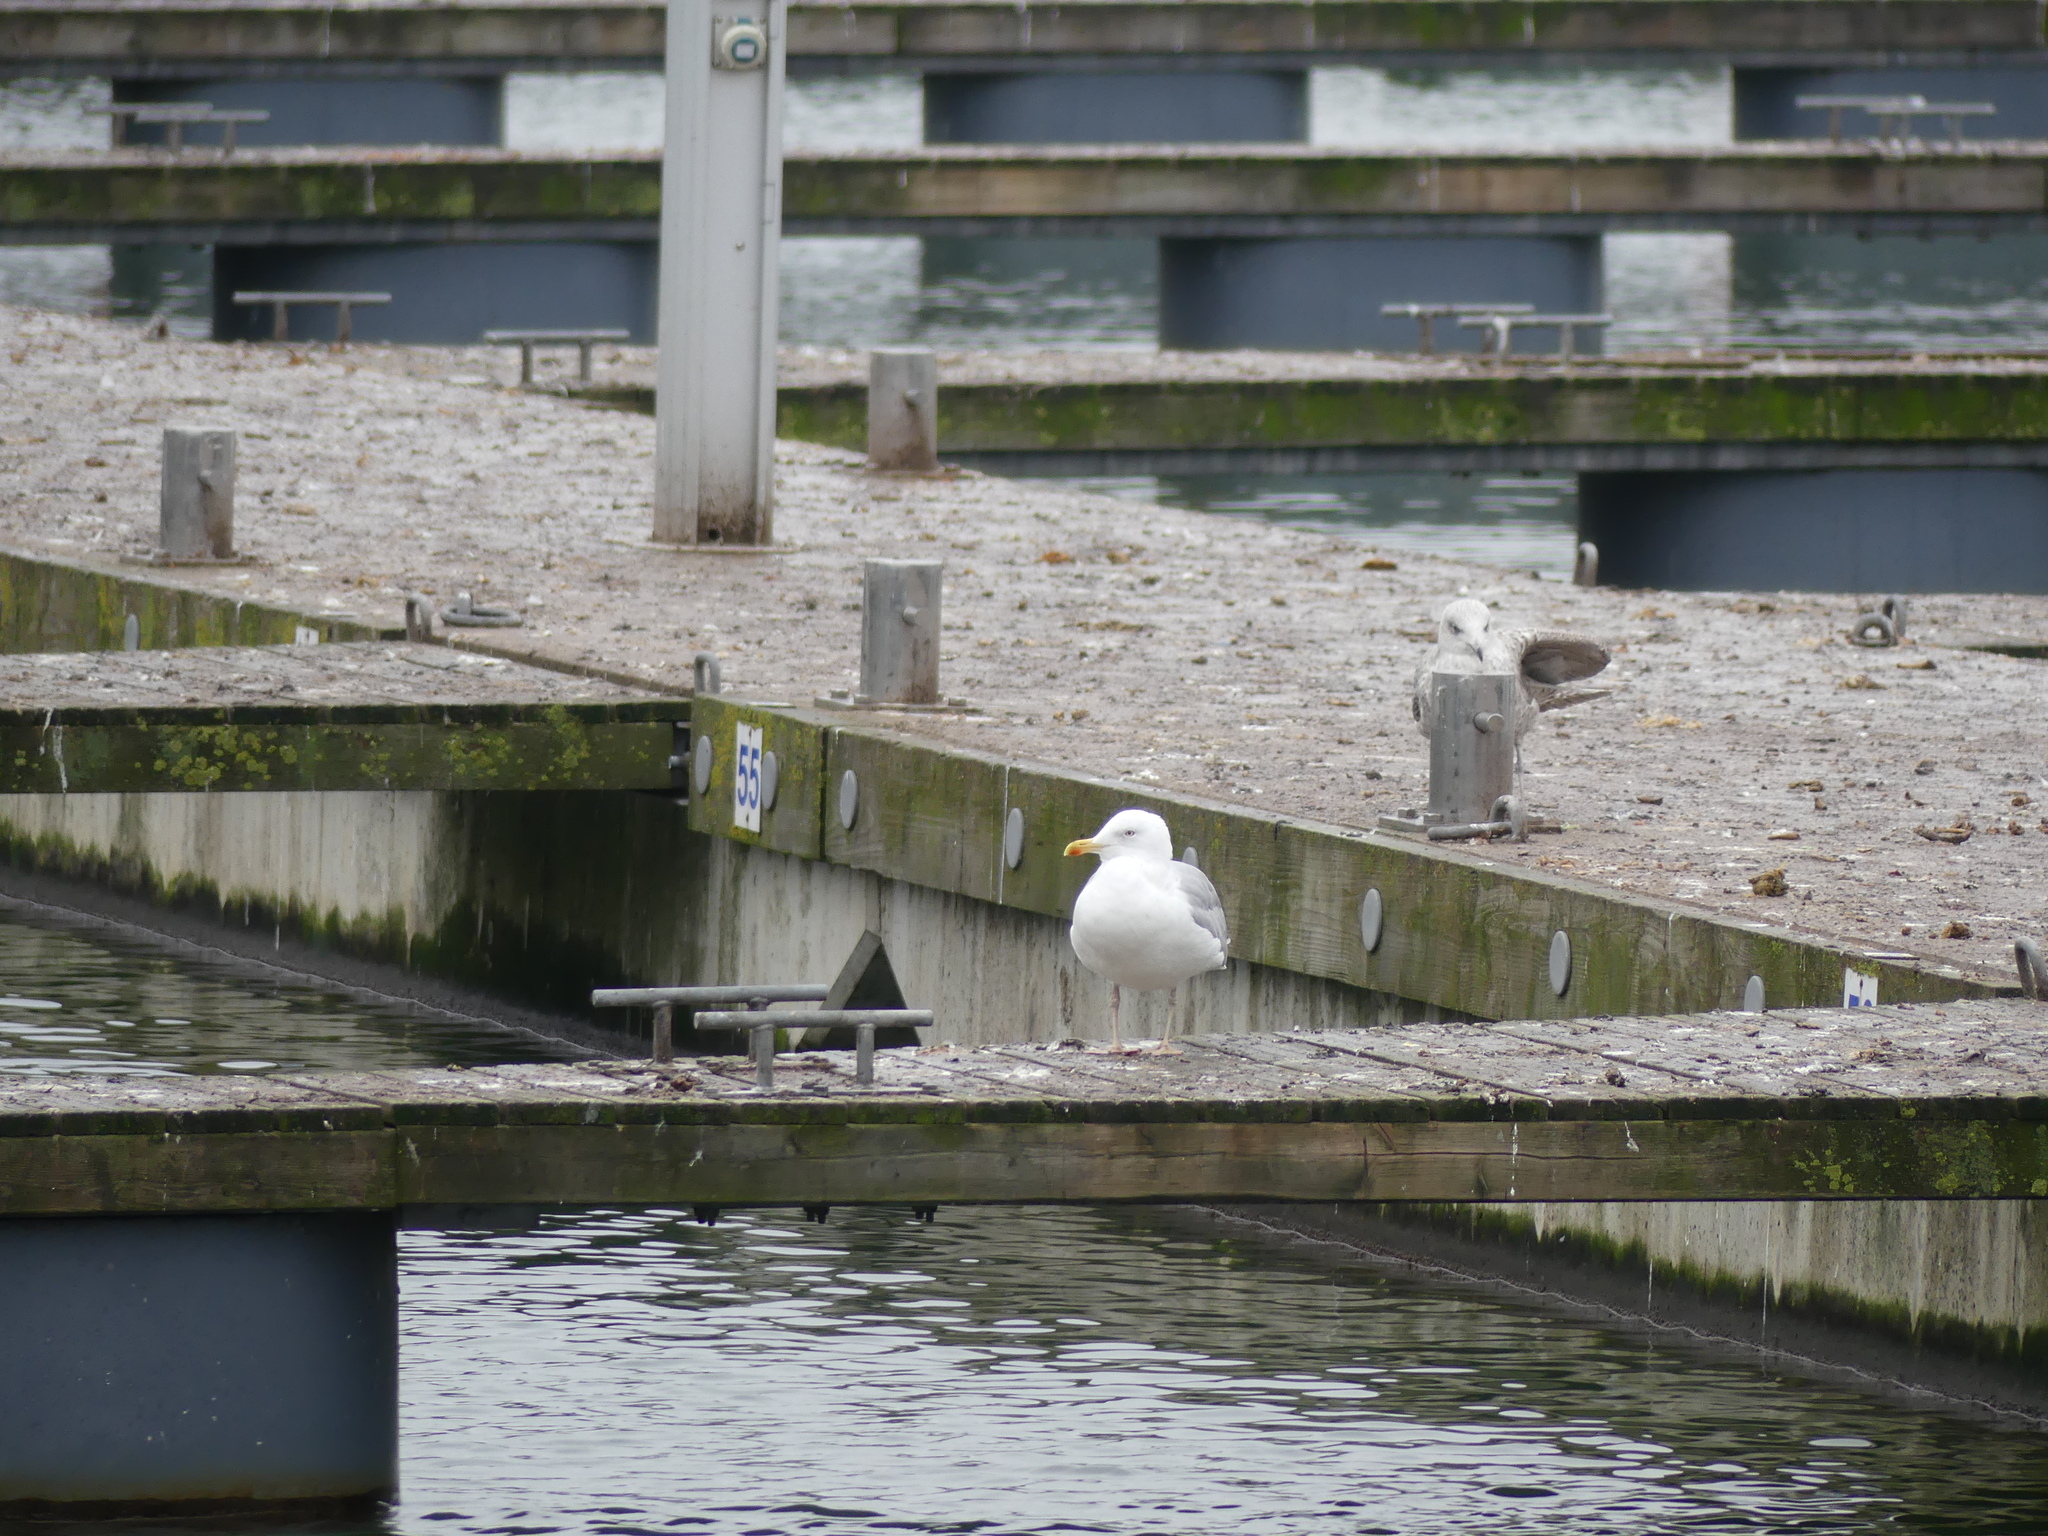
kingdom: Animalia
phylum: Chordata
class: Aves
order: Charadriiformes
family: Laridae
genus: Larus
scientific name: Larus argentatus
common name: Herring gull
